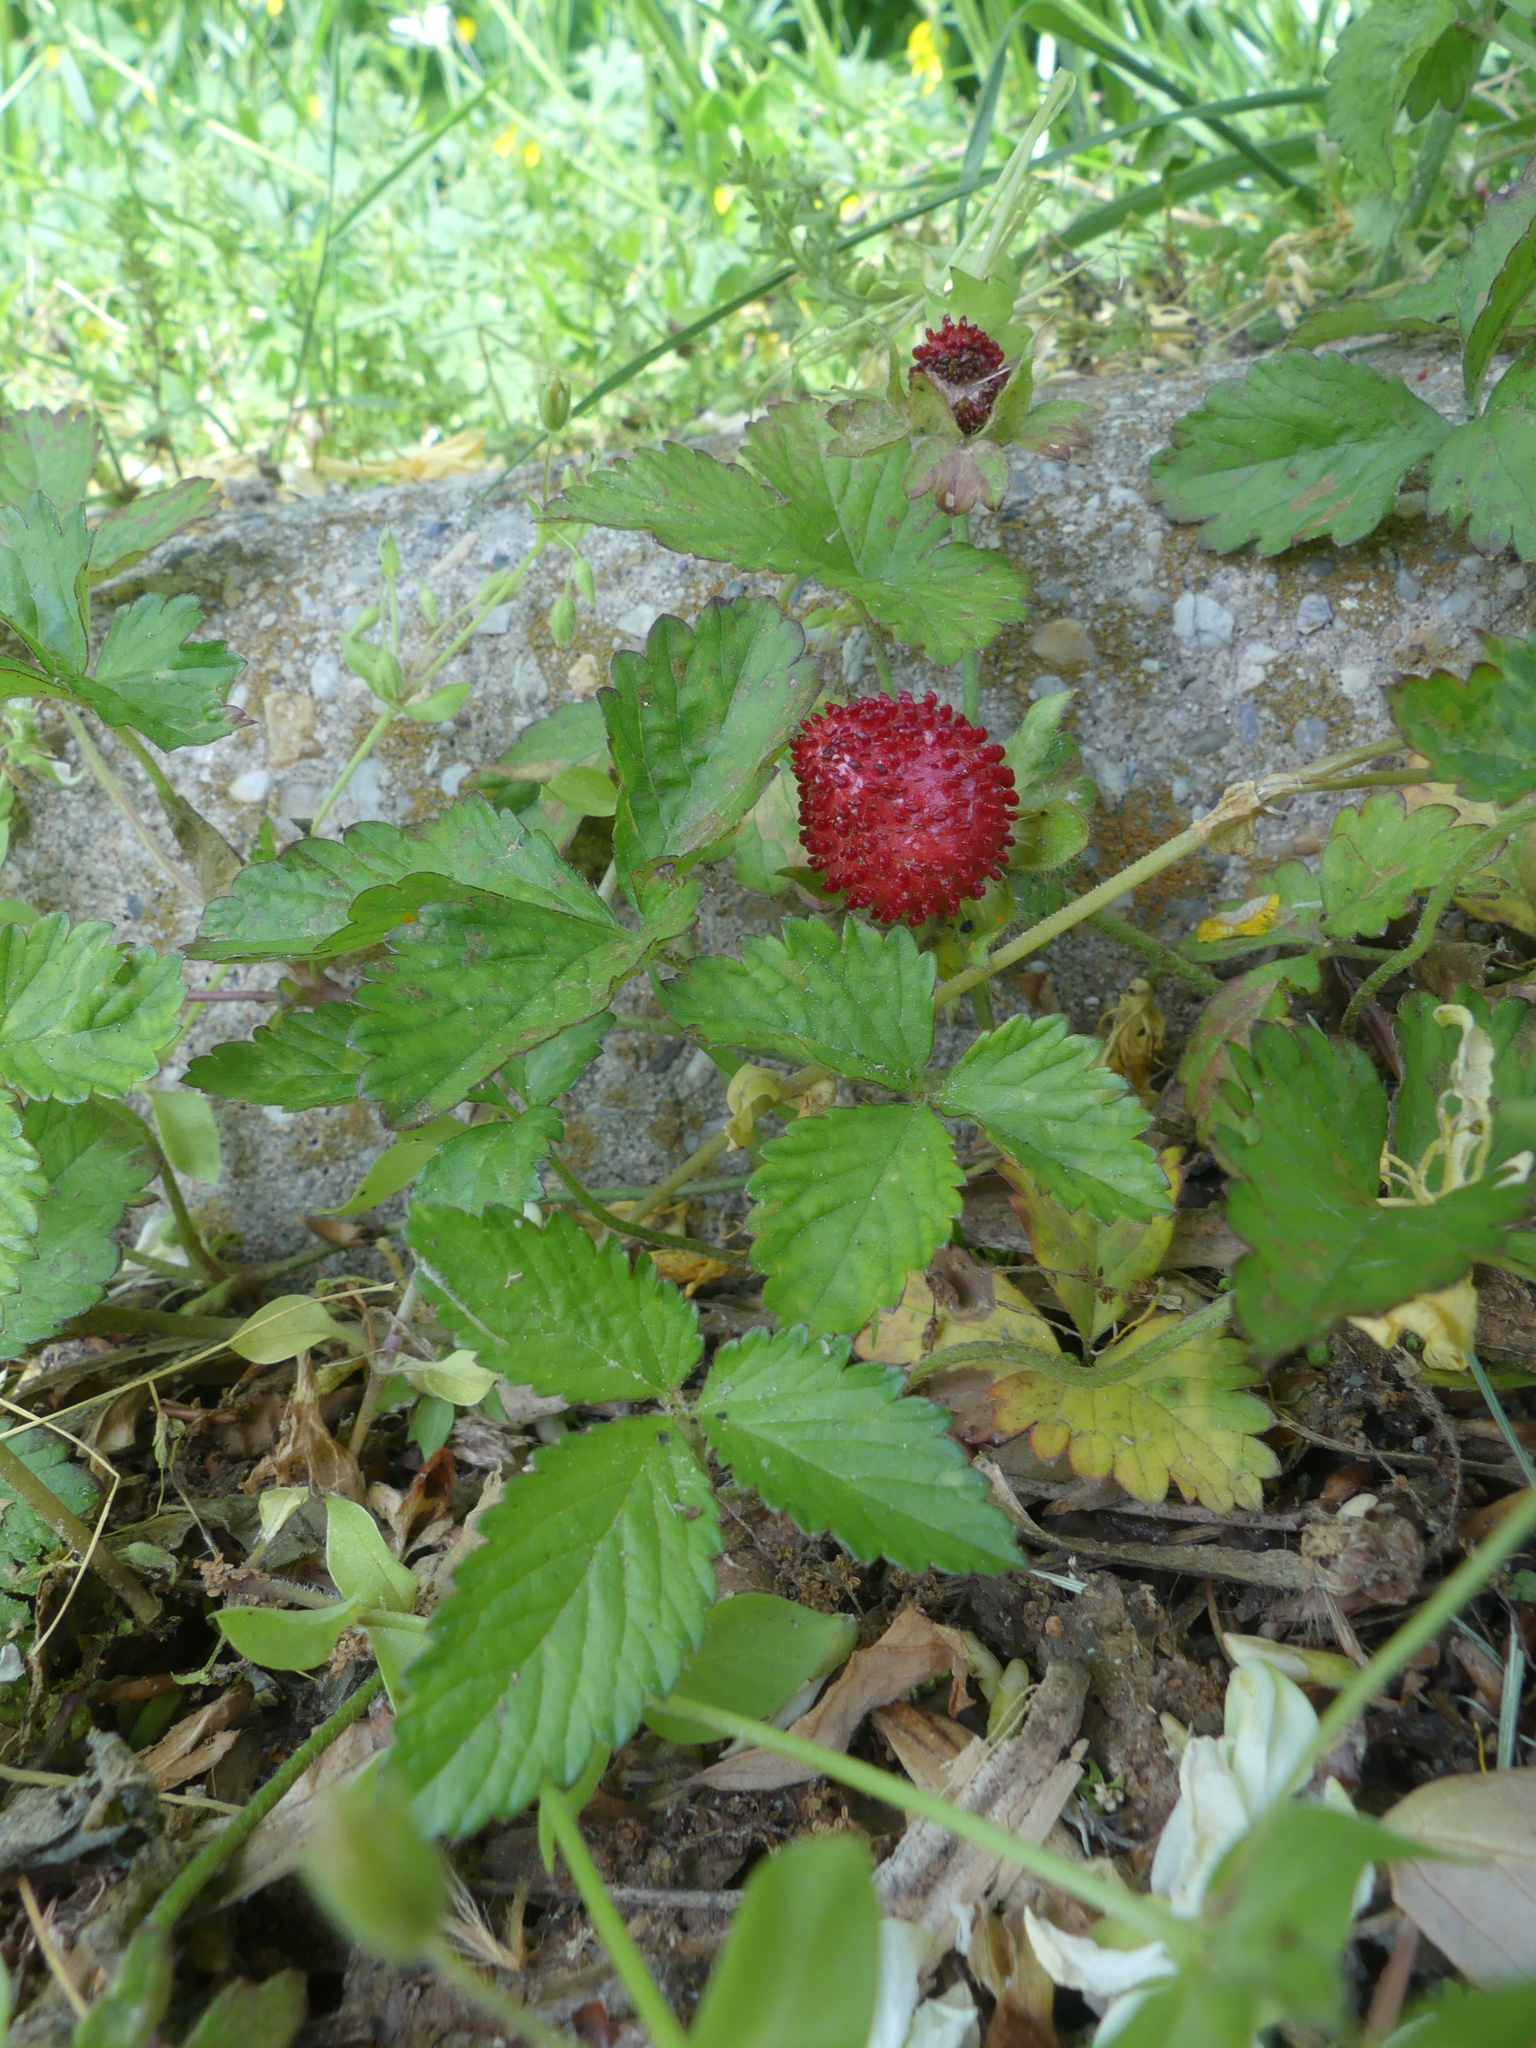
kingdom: Plantae
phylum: Tracheophyta
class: Magnoliopsida
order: Rosales
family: Rosaceae
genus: Potentilla
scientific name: Potentilla indica
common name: Yellow-flowered strawberry
